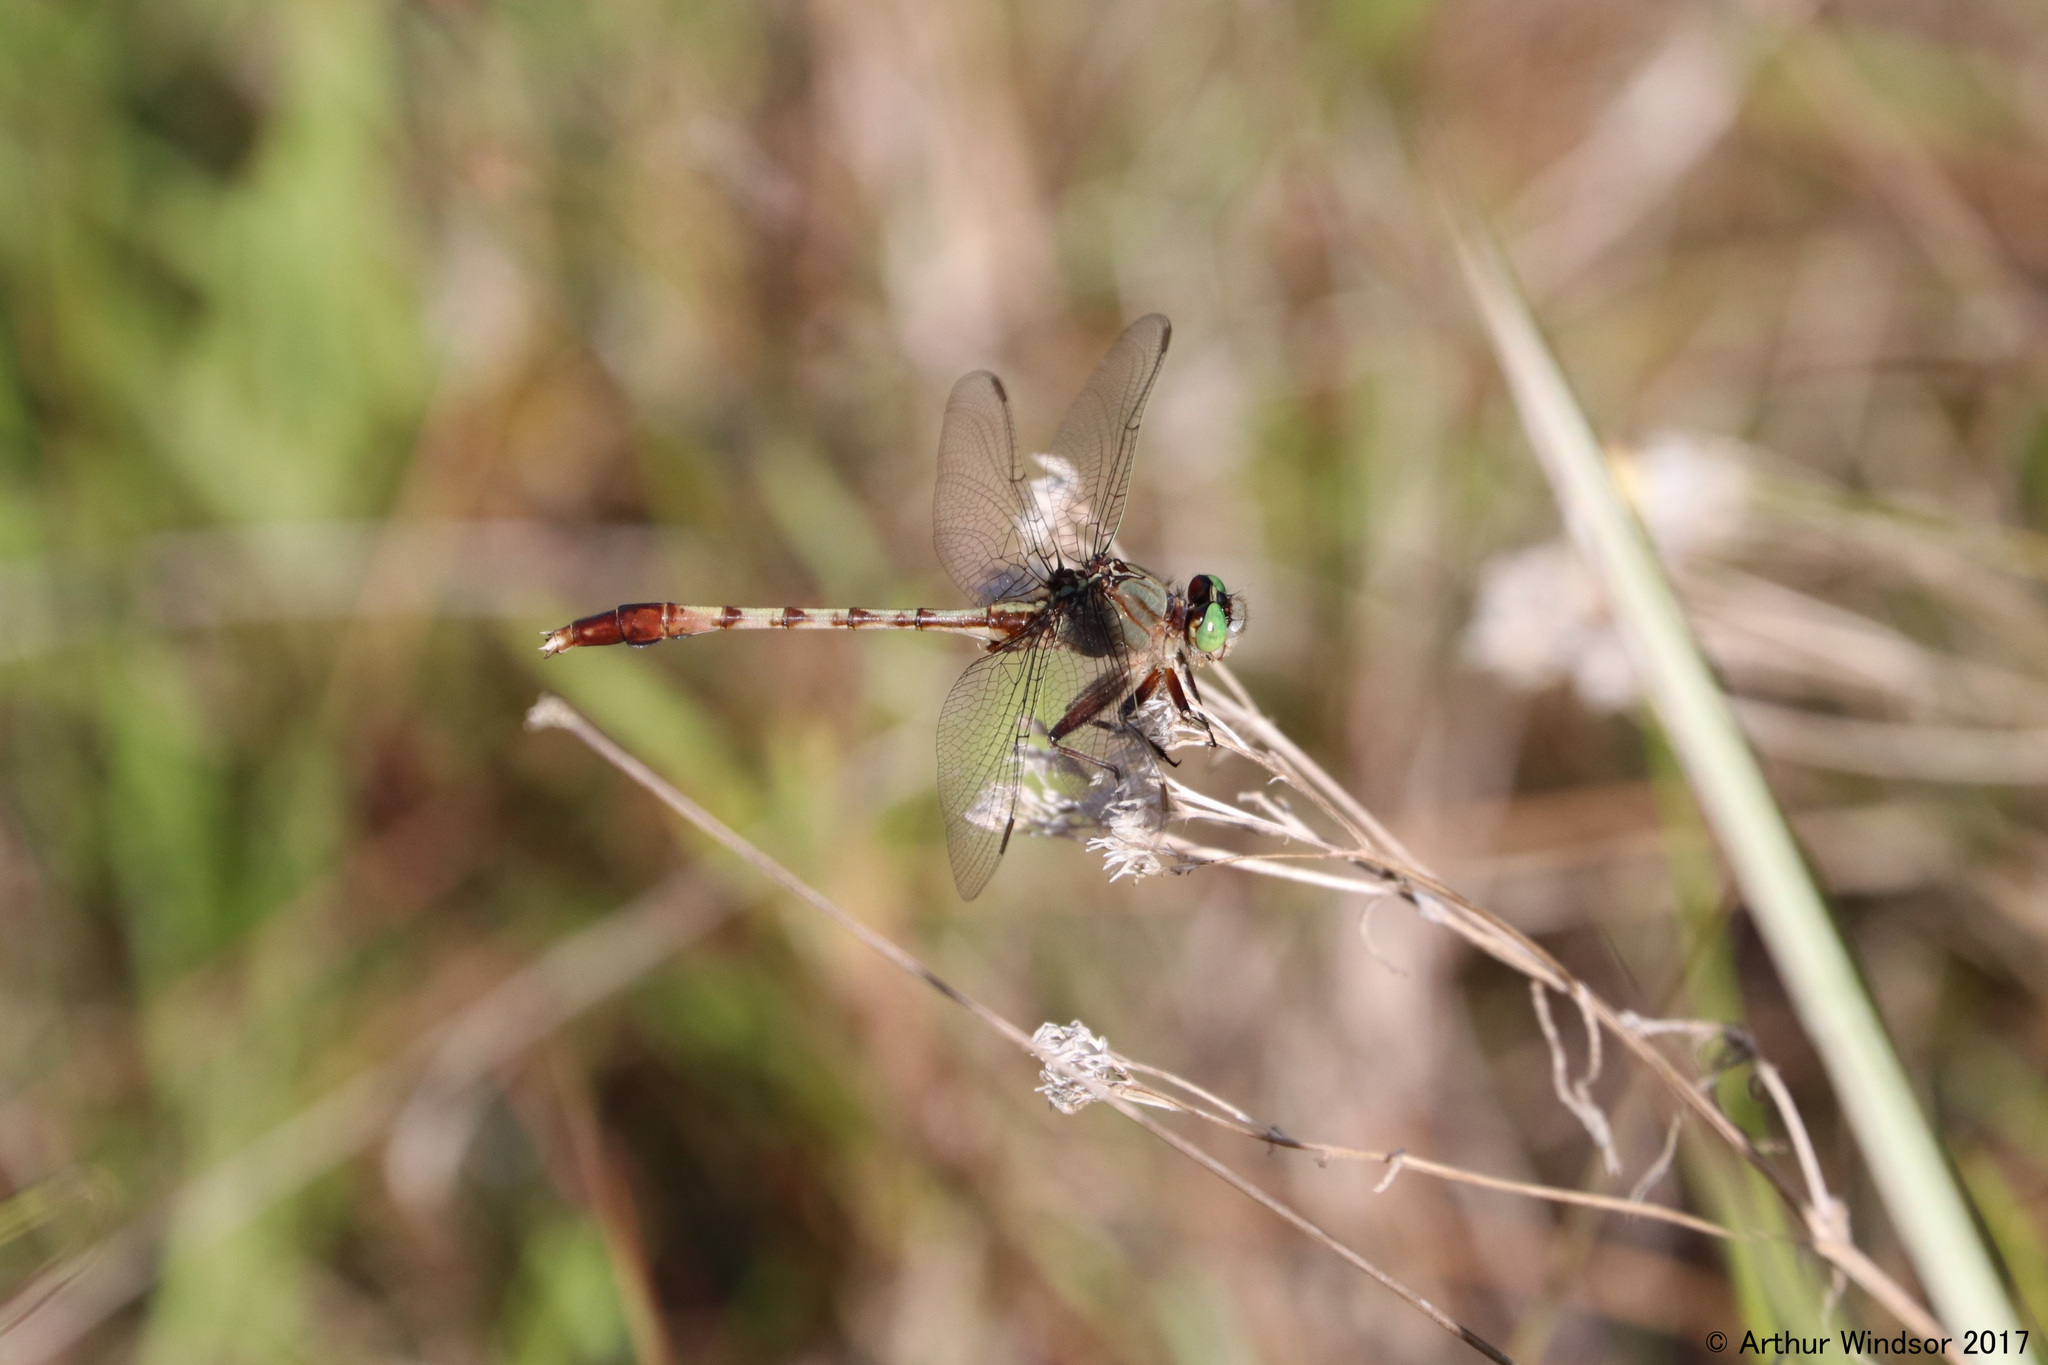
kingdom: Animalia
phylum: Arthropoda
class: Insecta
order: Odonata
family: Gomphidae
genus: Arigomphus
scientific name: Arigomphus pallidus
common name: Gray-green clubtail
